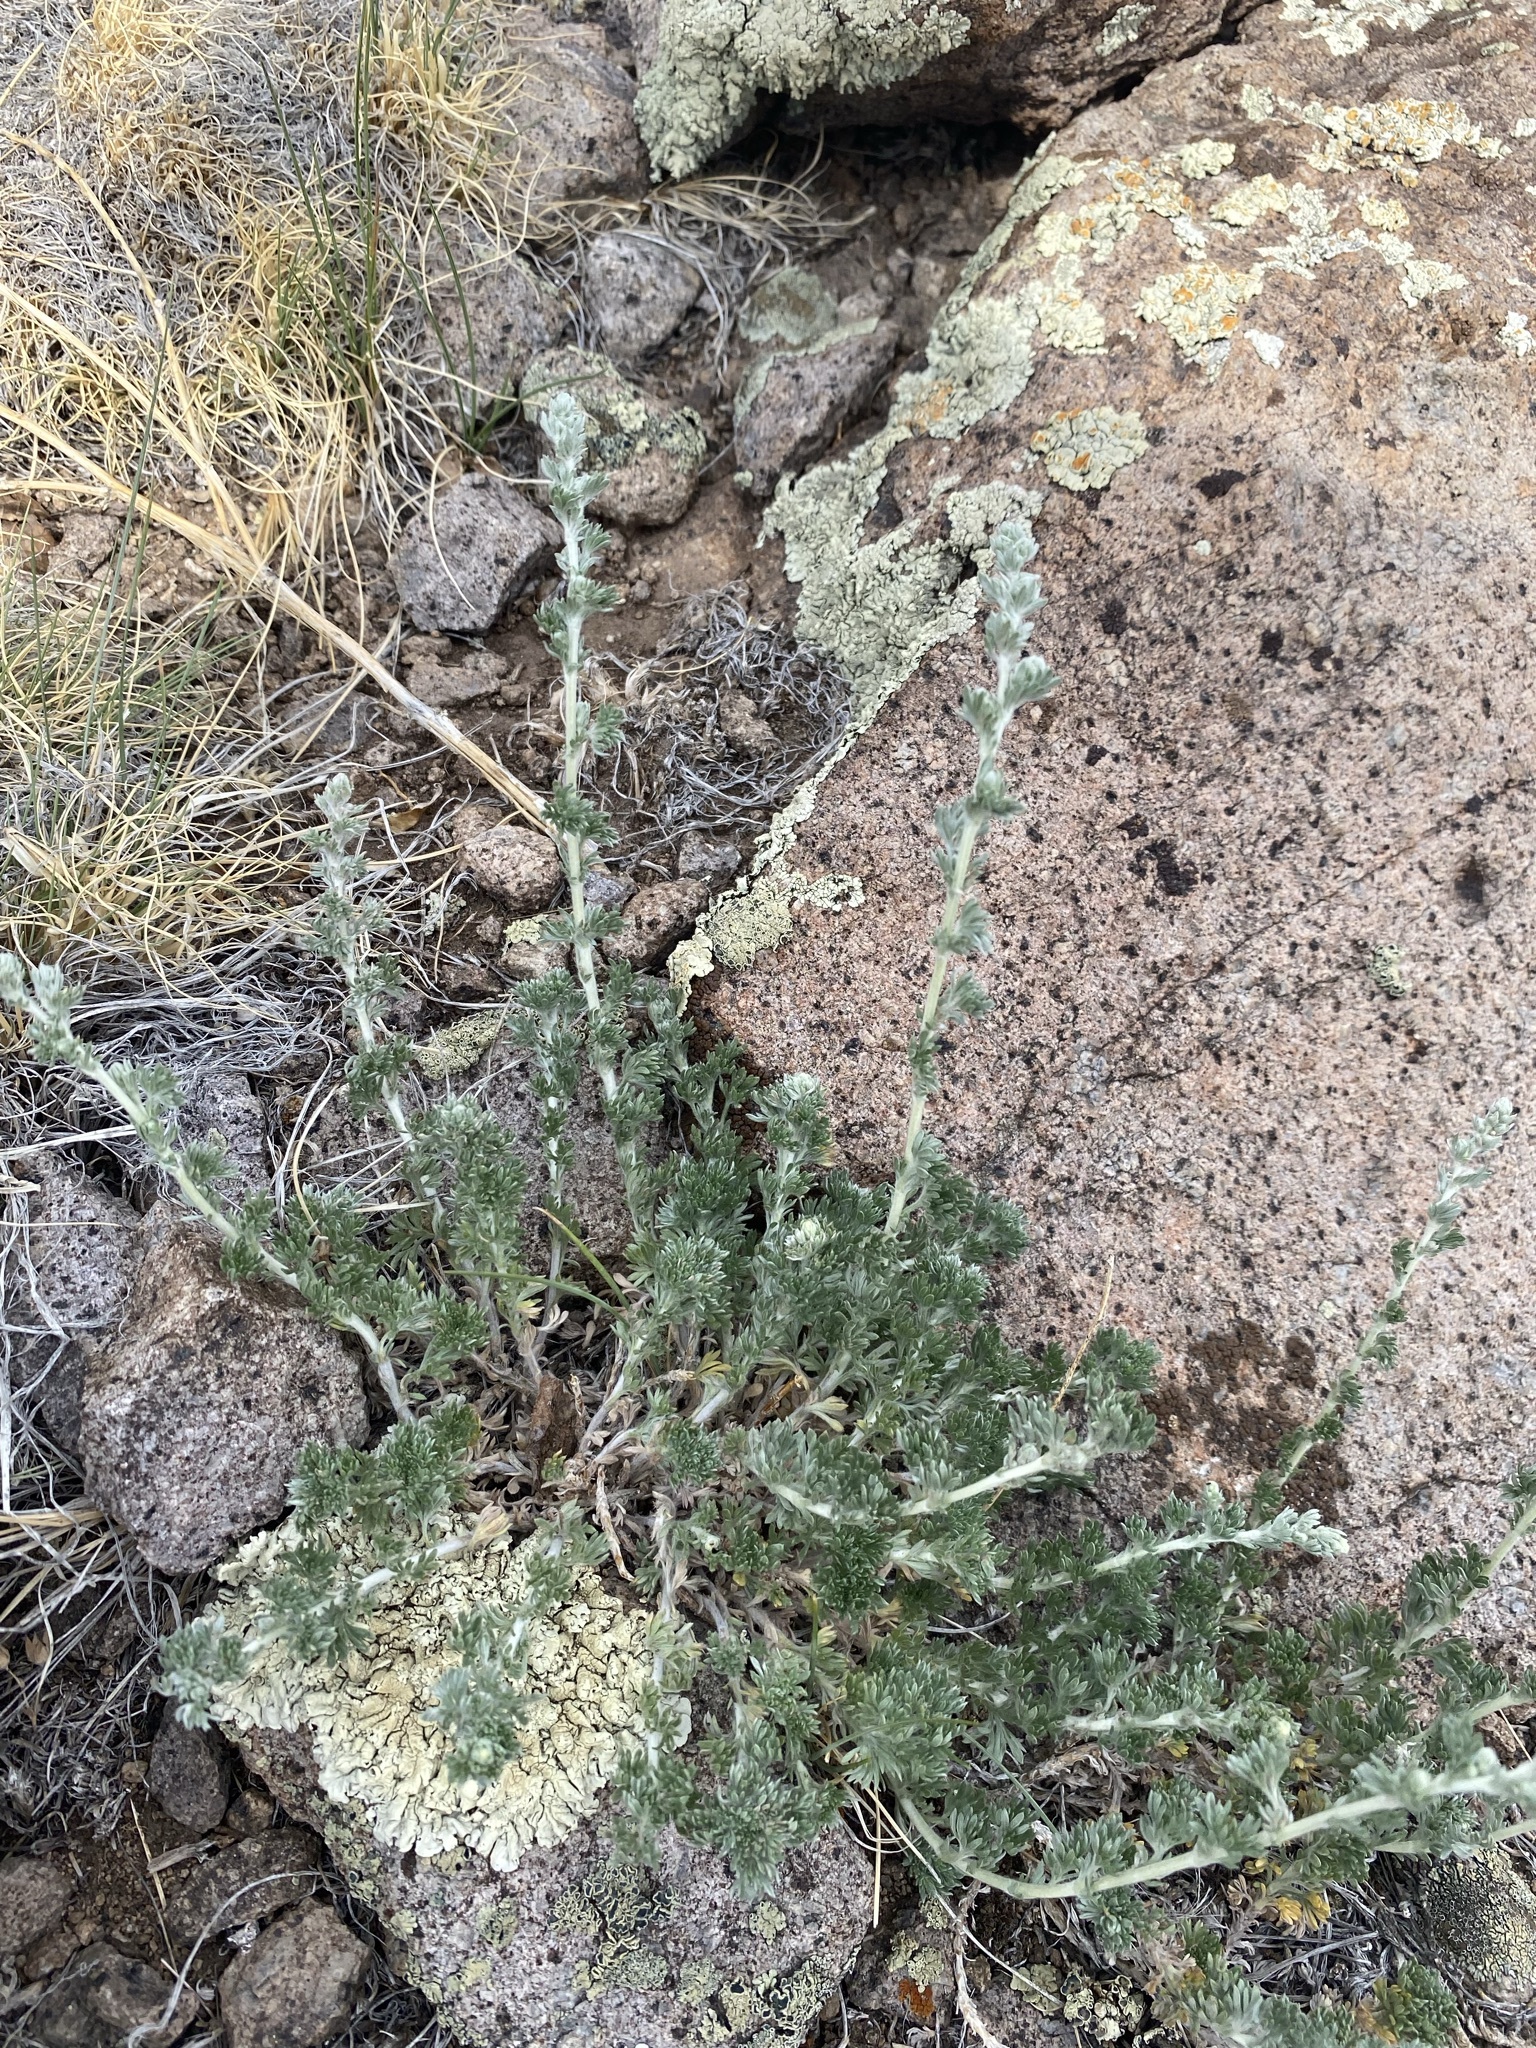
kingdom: Plantae
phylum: Tracheophyta
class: Magnoliopsida
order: Asterales
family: Asteraceae
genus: Artemisia
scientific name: Artemisia frigida
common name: Prairie sagewort
